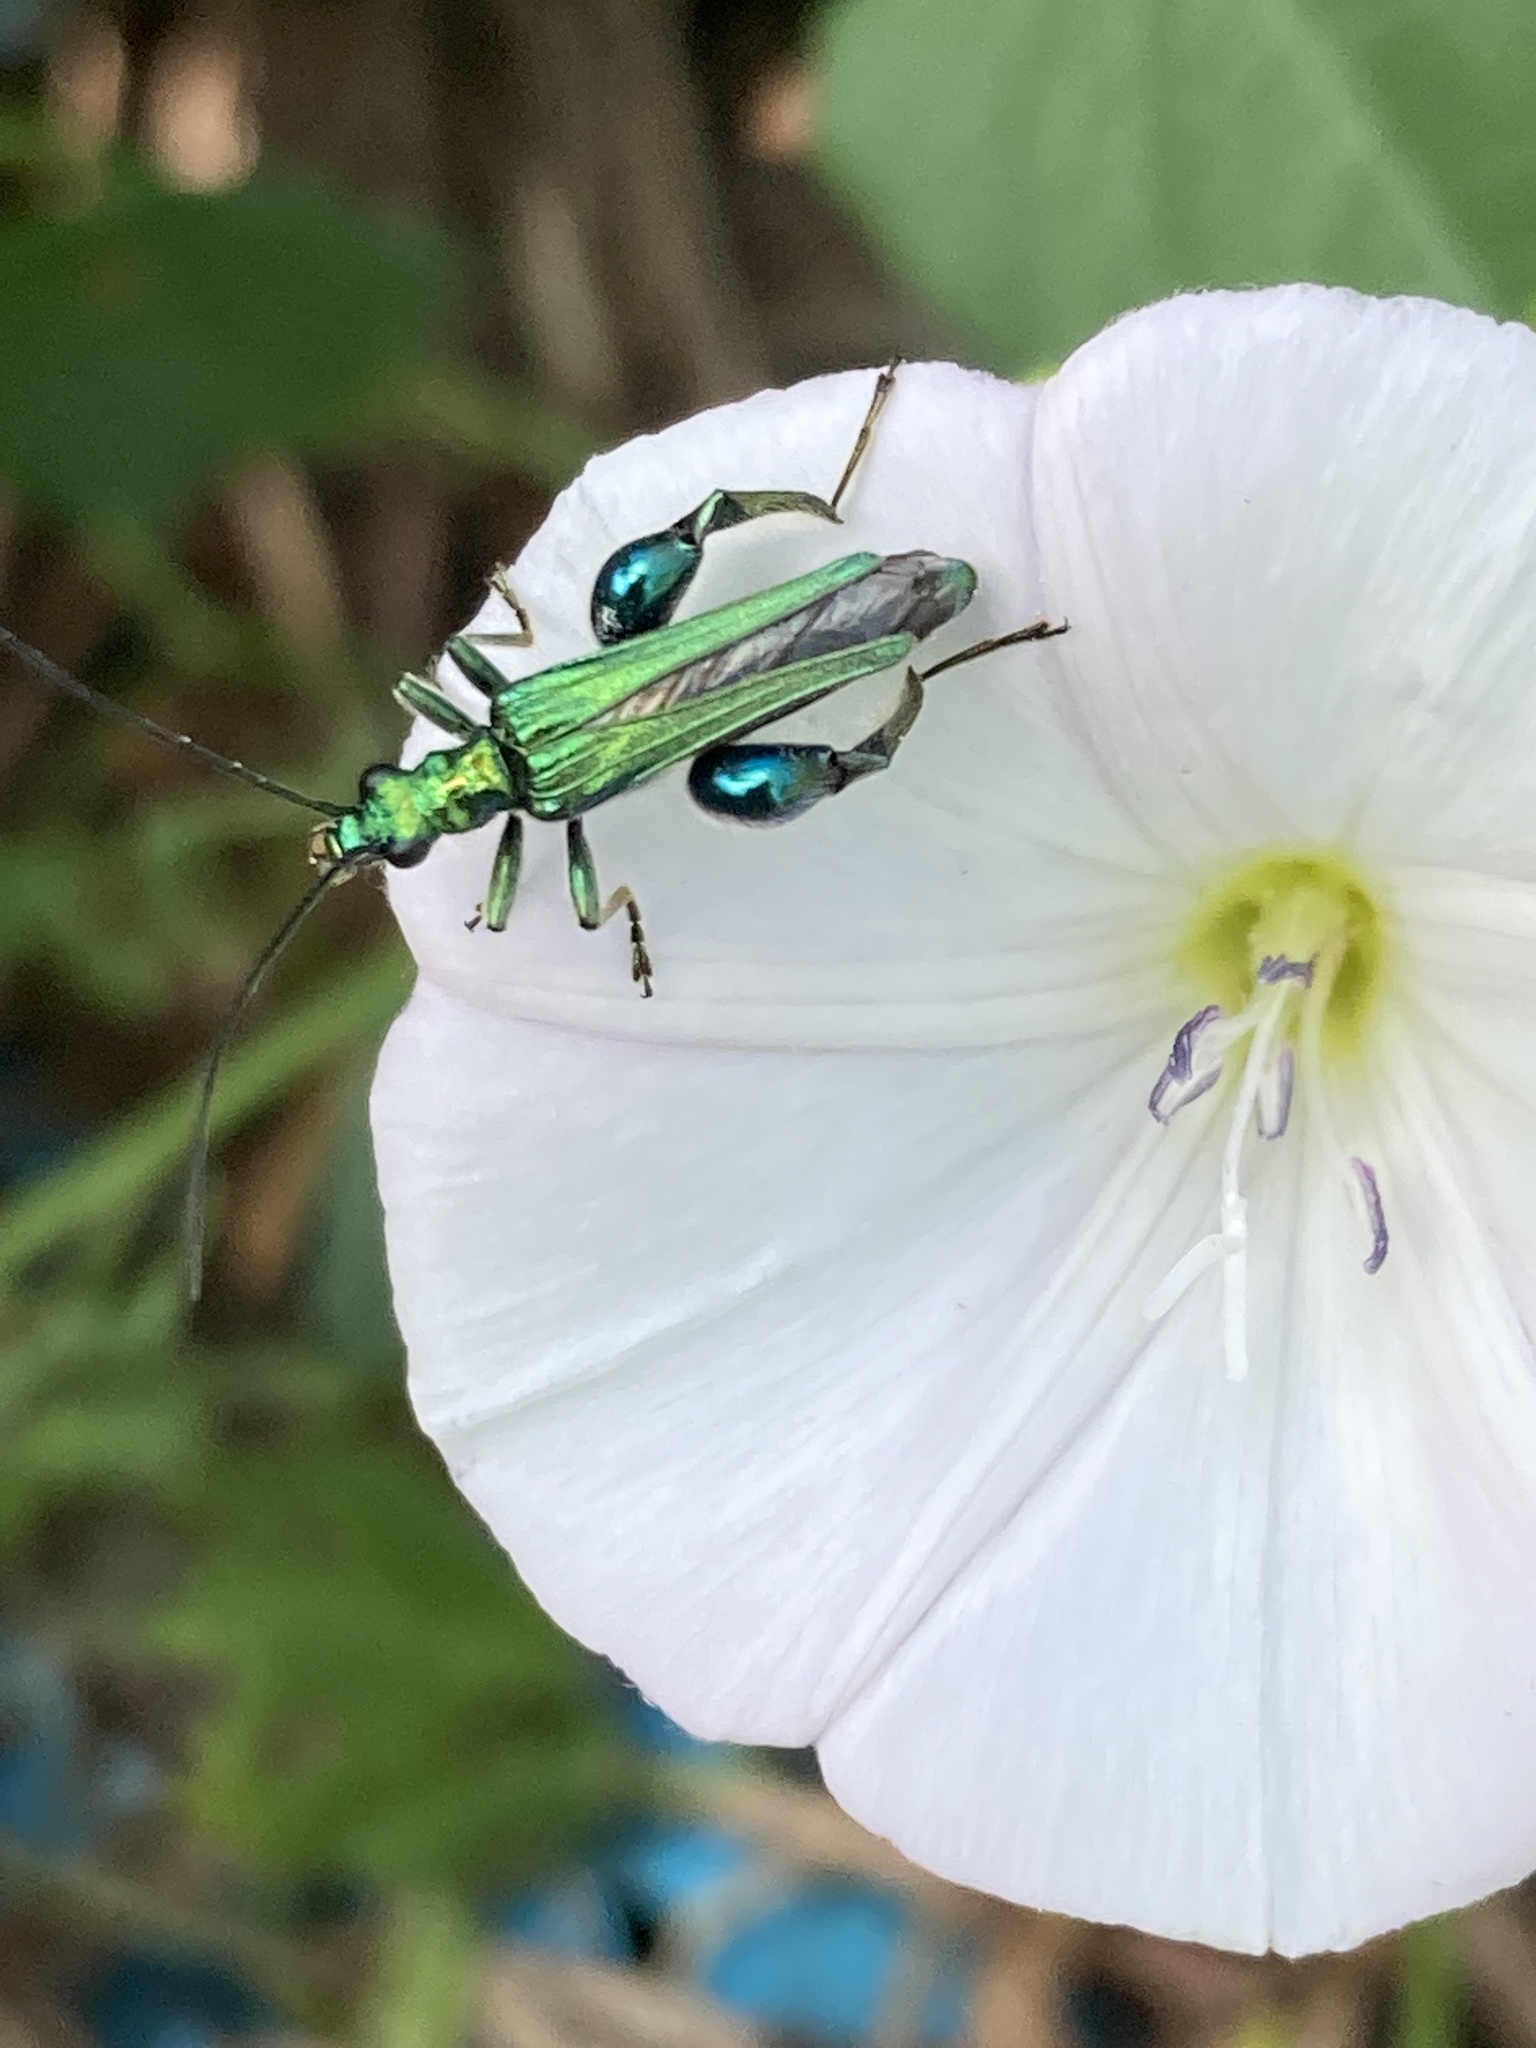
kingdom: Animalia
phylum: Arthropoda
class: Insecta
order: Coleoptera
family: Oedemeridae
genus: Oedemera
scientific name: Oedemera nobilis
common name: Swollen-thighed beetle
